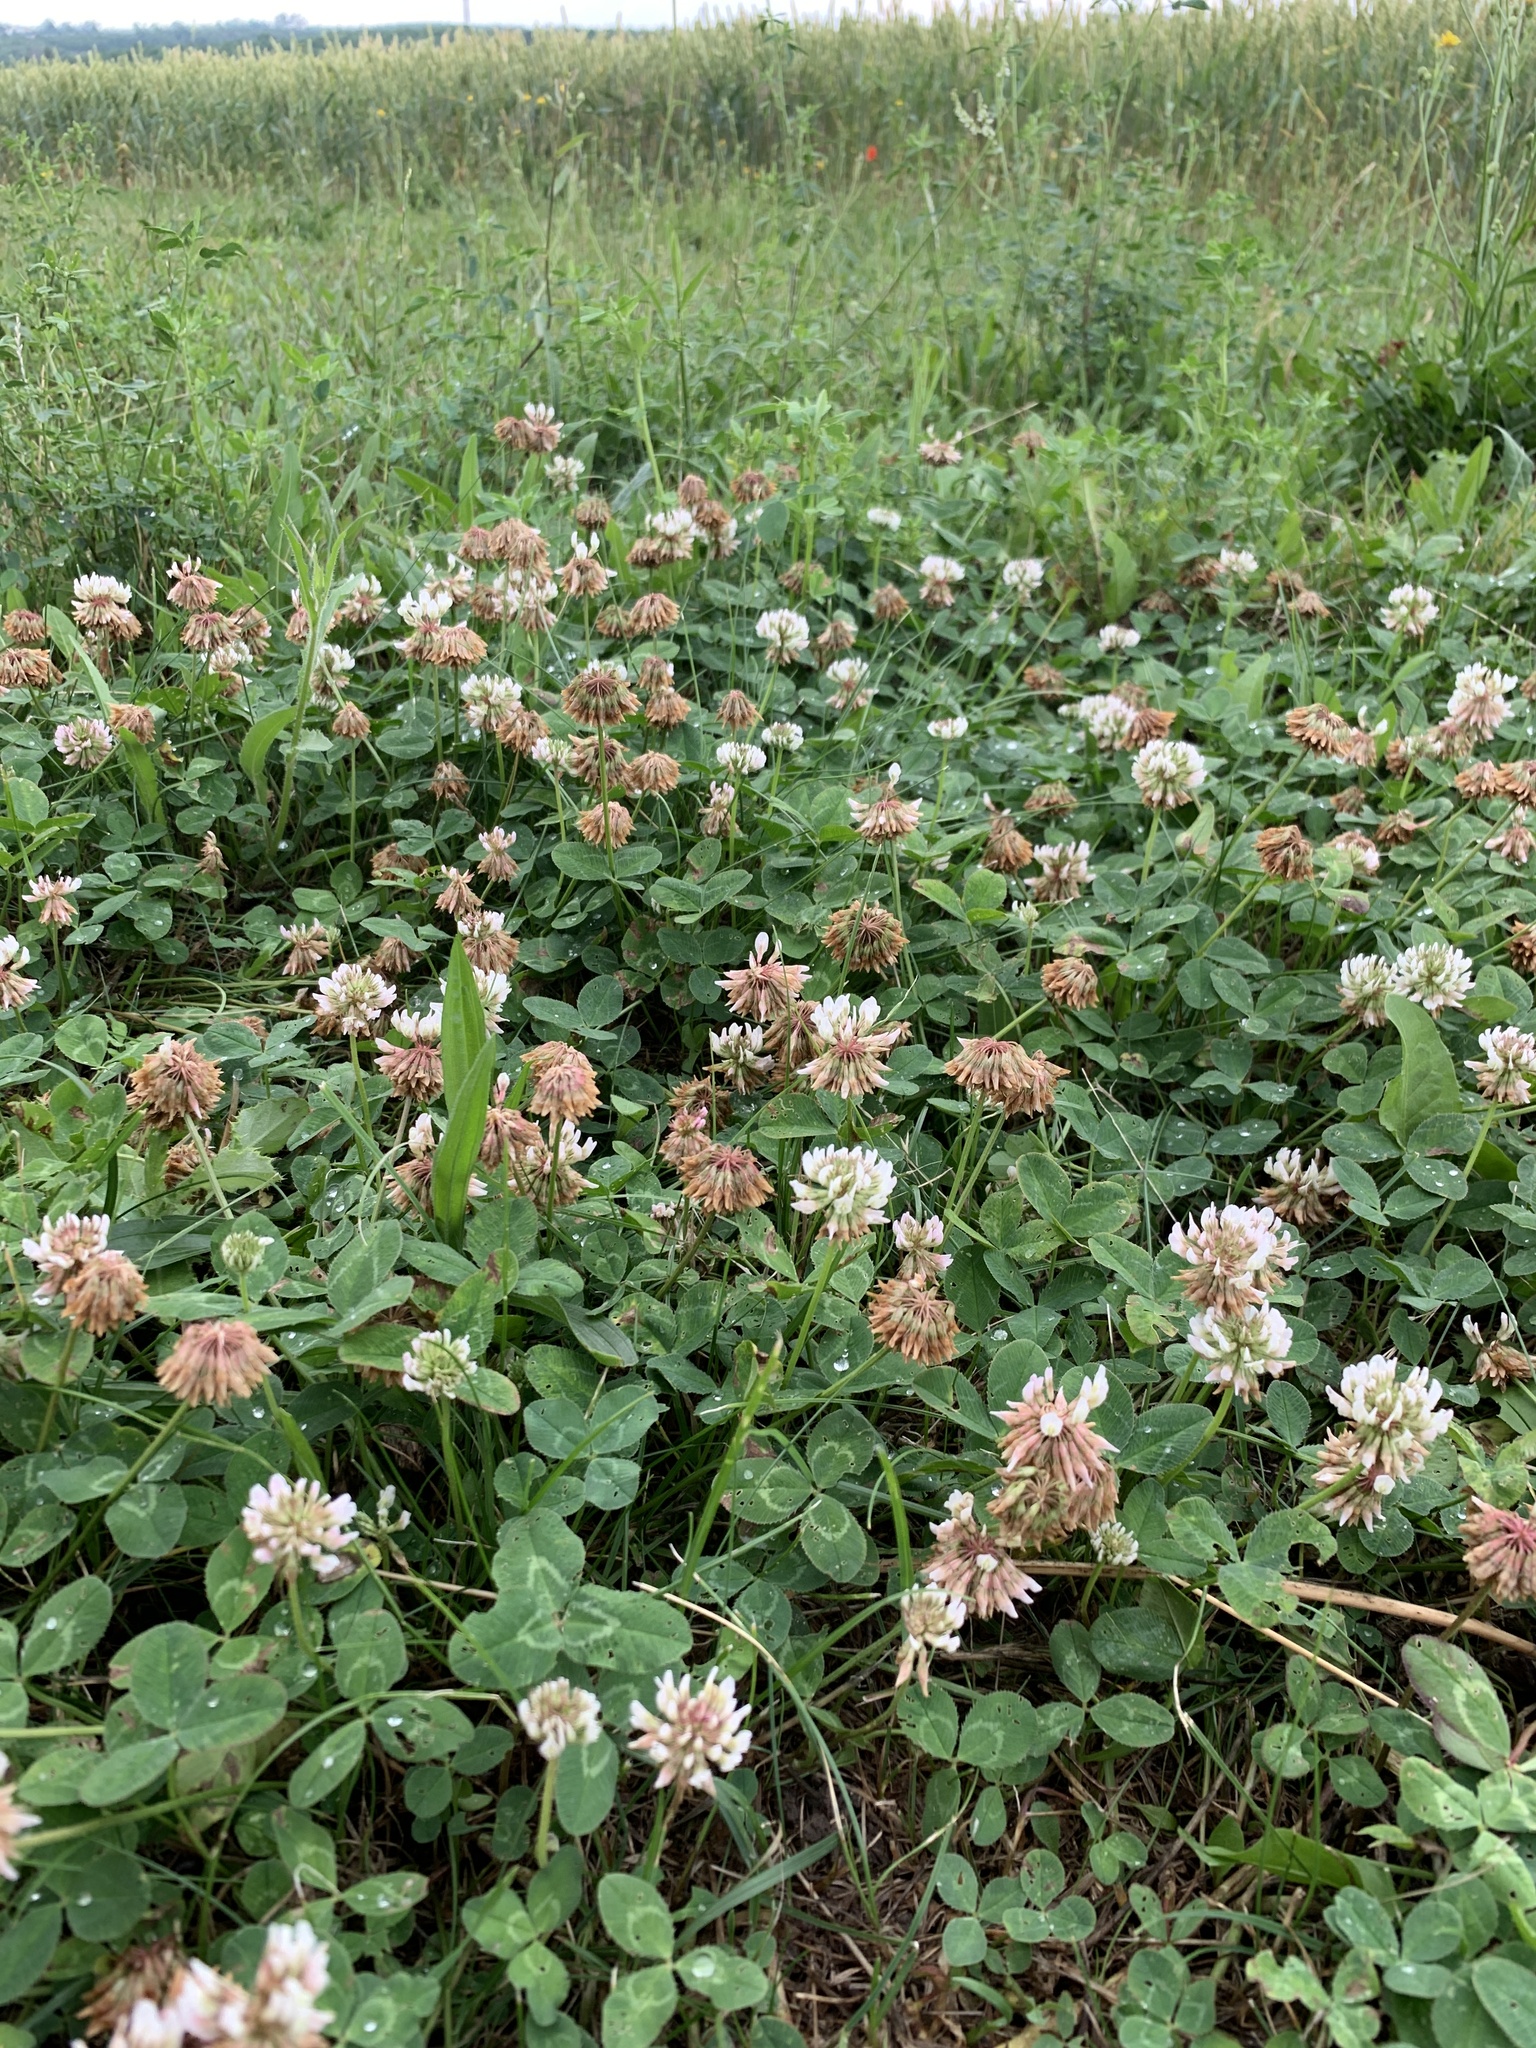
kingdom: Plantae
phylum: Tracheophyta
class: Magnoliopsida
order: Fabales
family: Fabaceae
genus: Trifolium
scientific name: Trifolium repens
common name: White clover
